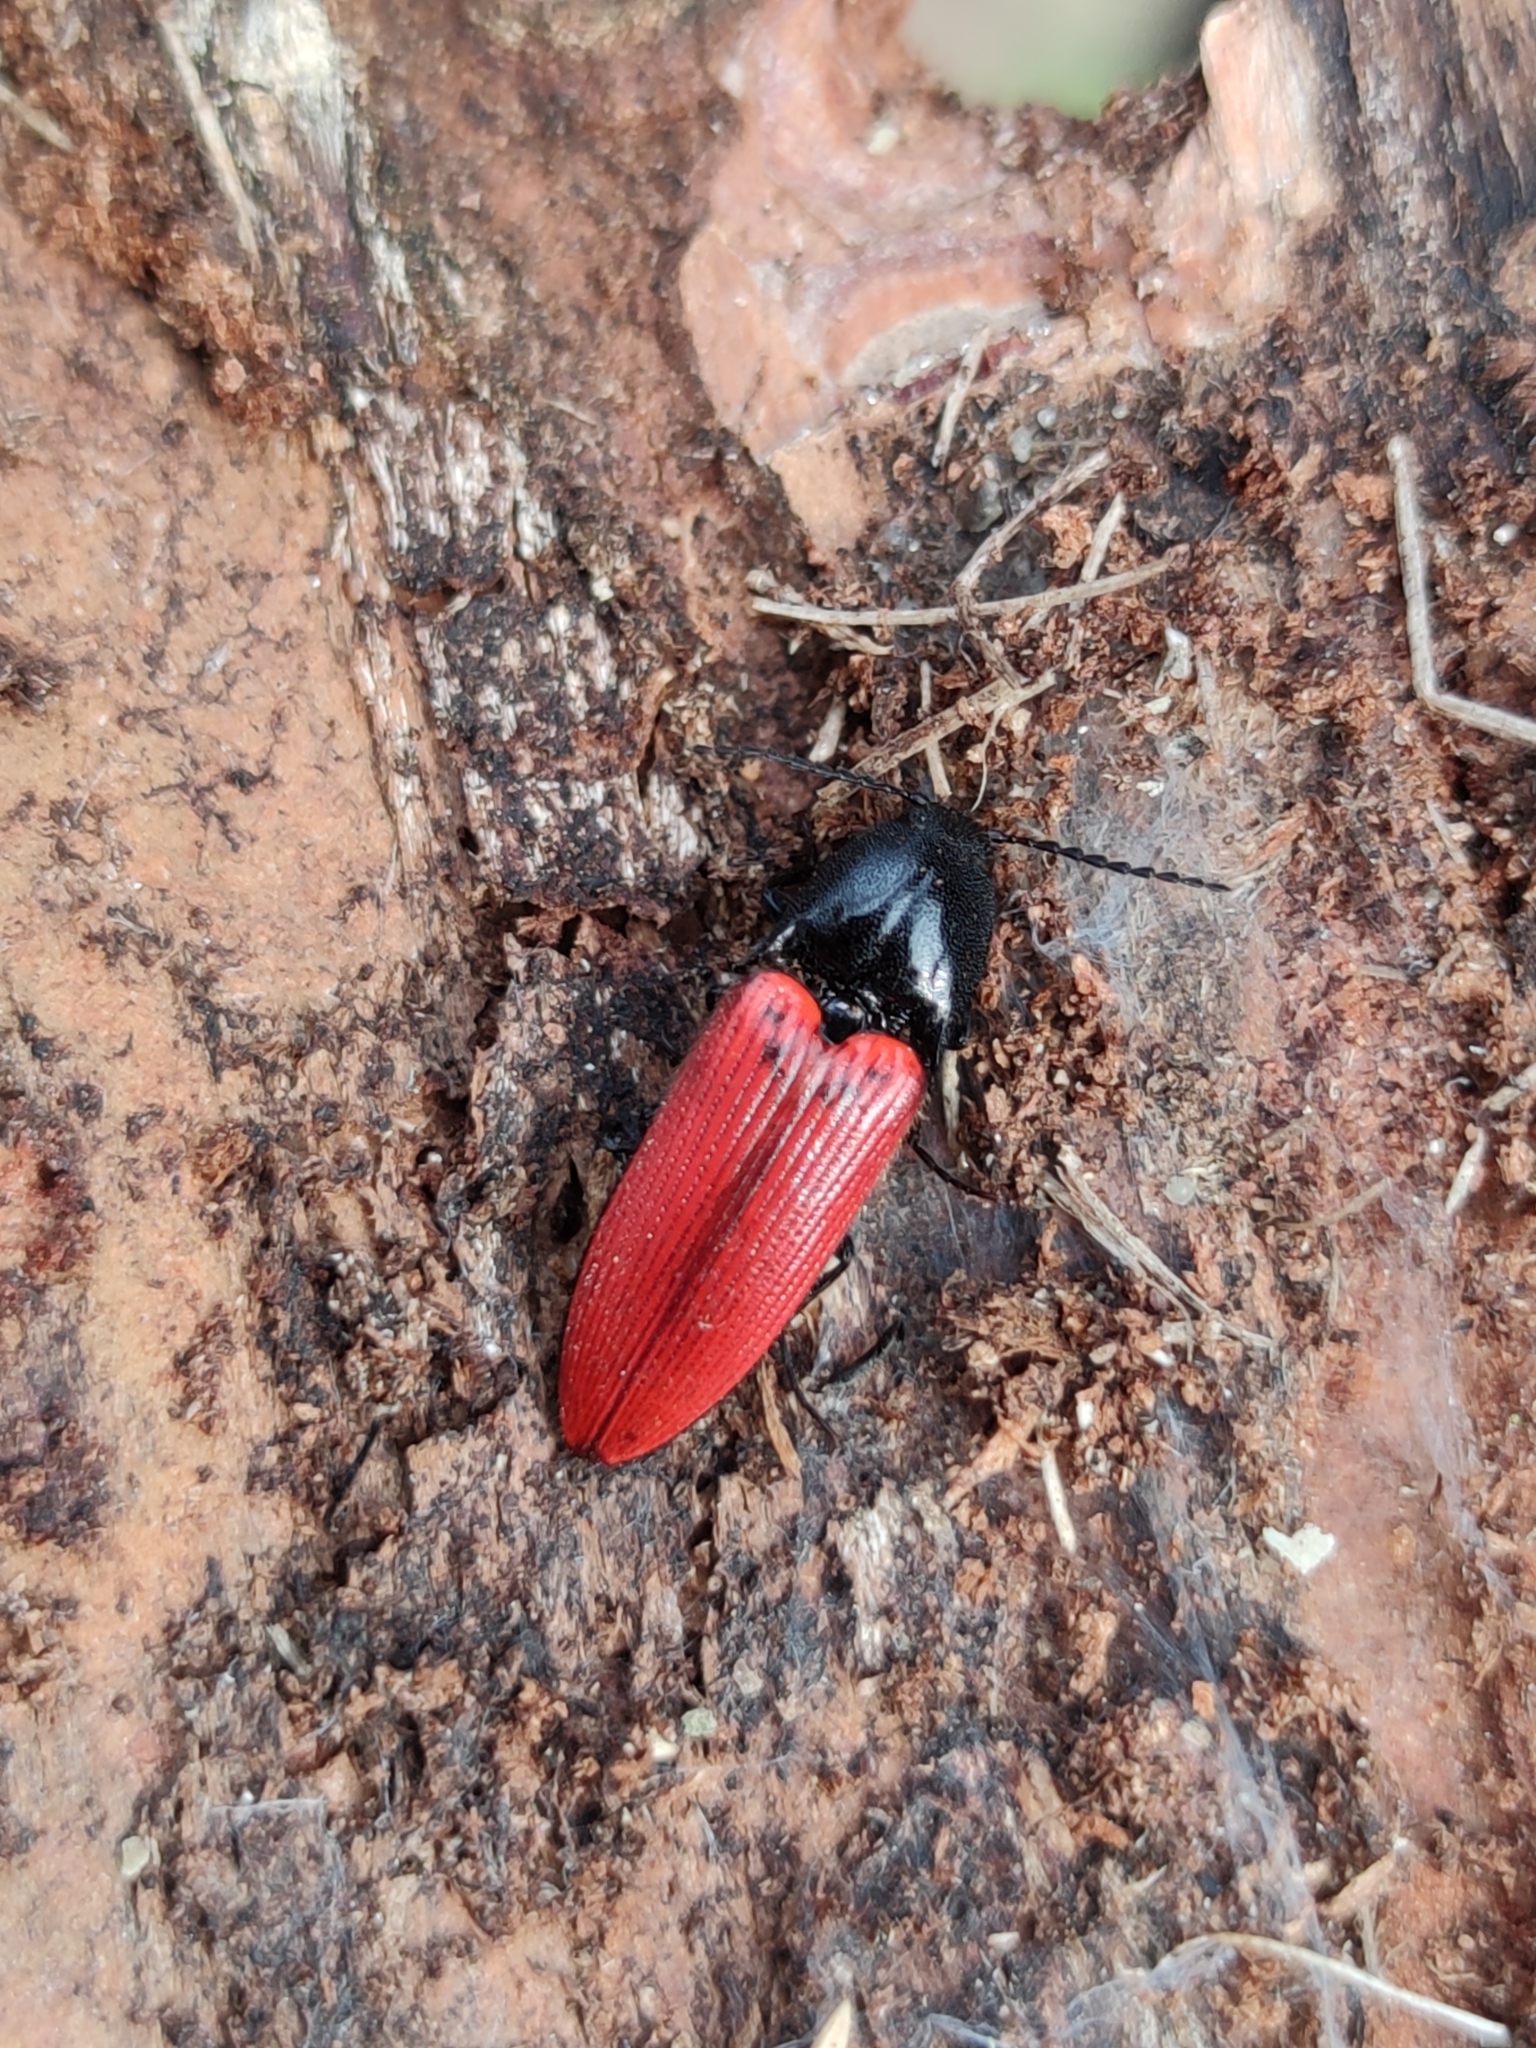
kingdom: Animalia
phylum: Arthropoda
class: Insecta
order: Coleoptera
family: Elateridae
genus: Ampedus
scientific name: Ampedus sanguineus
